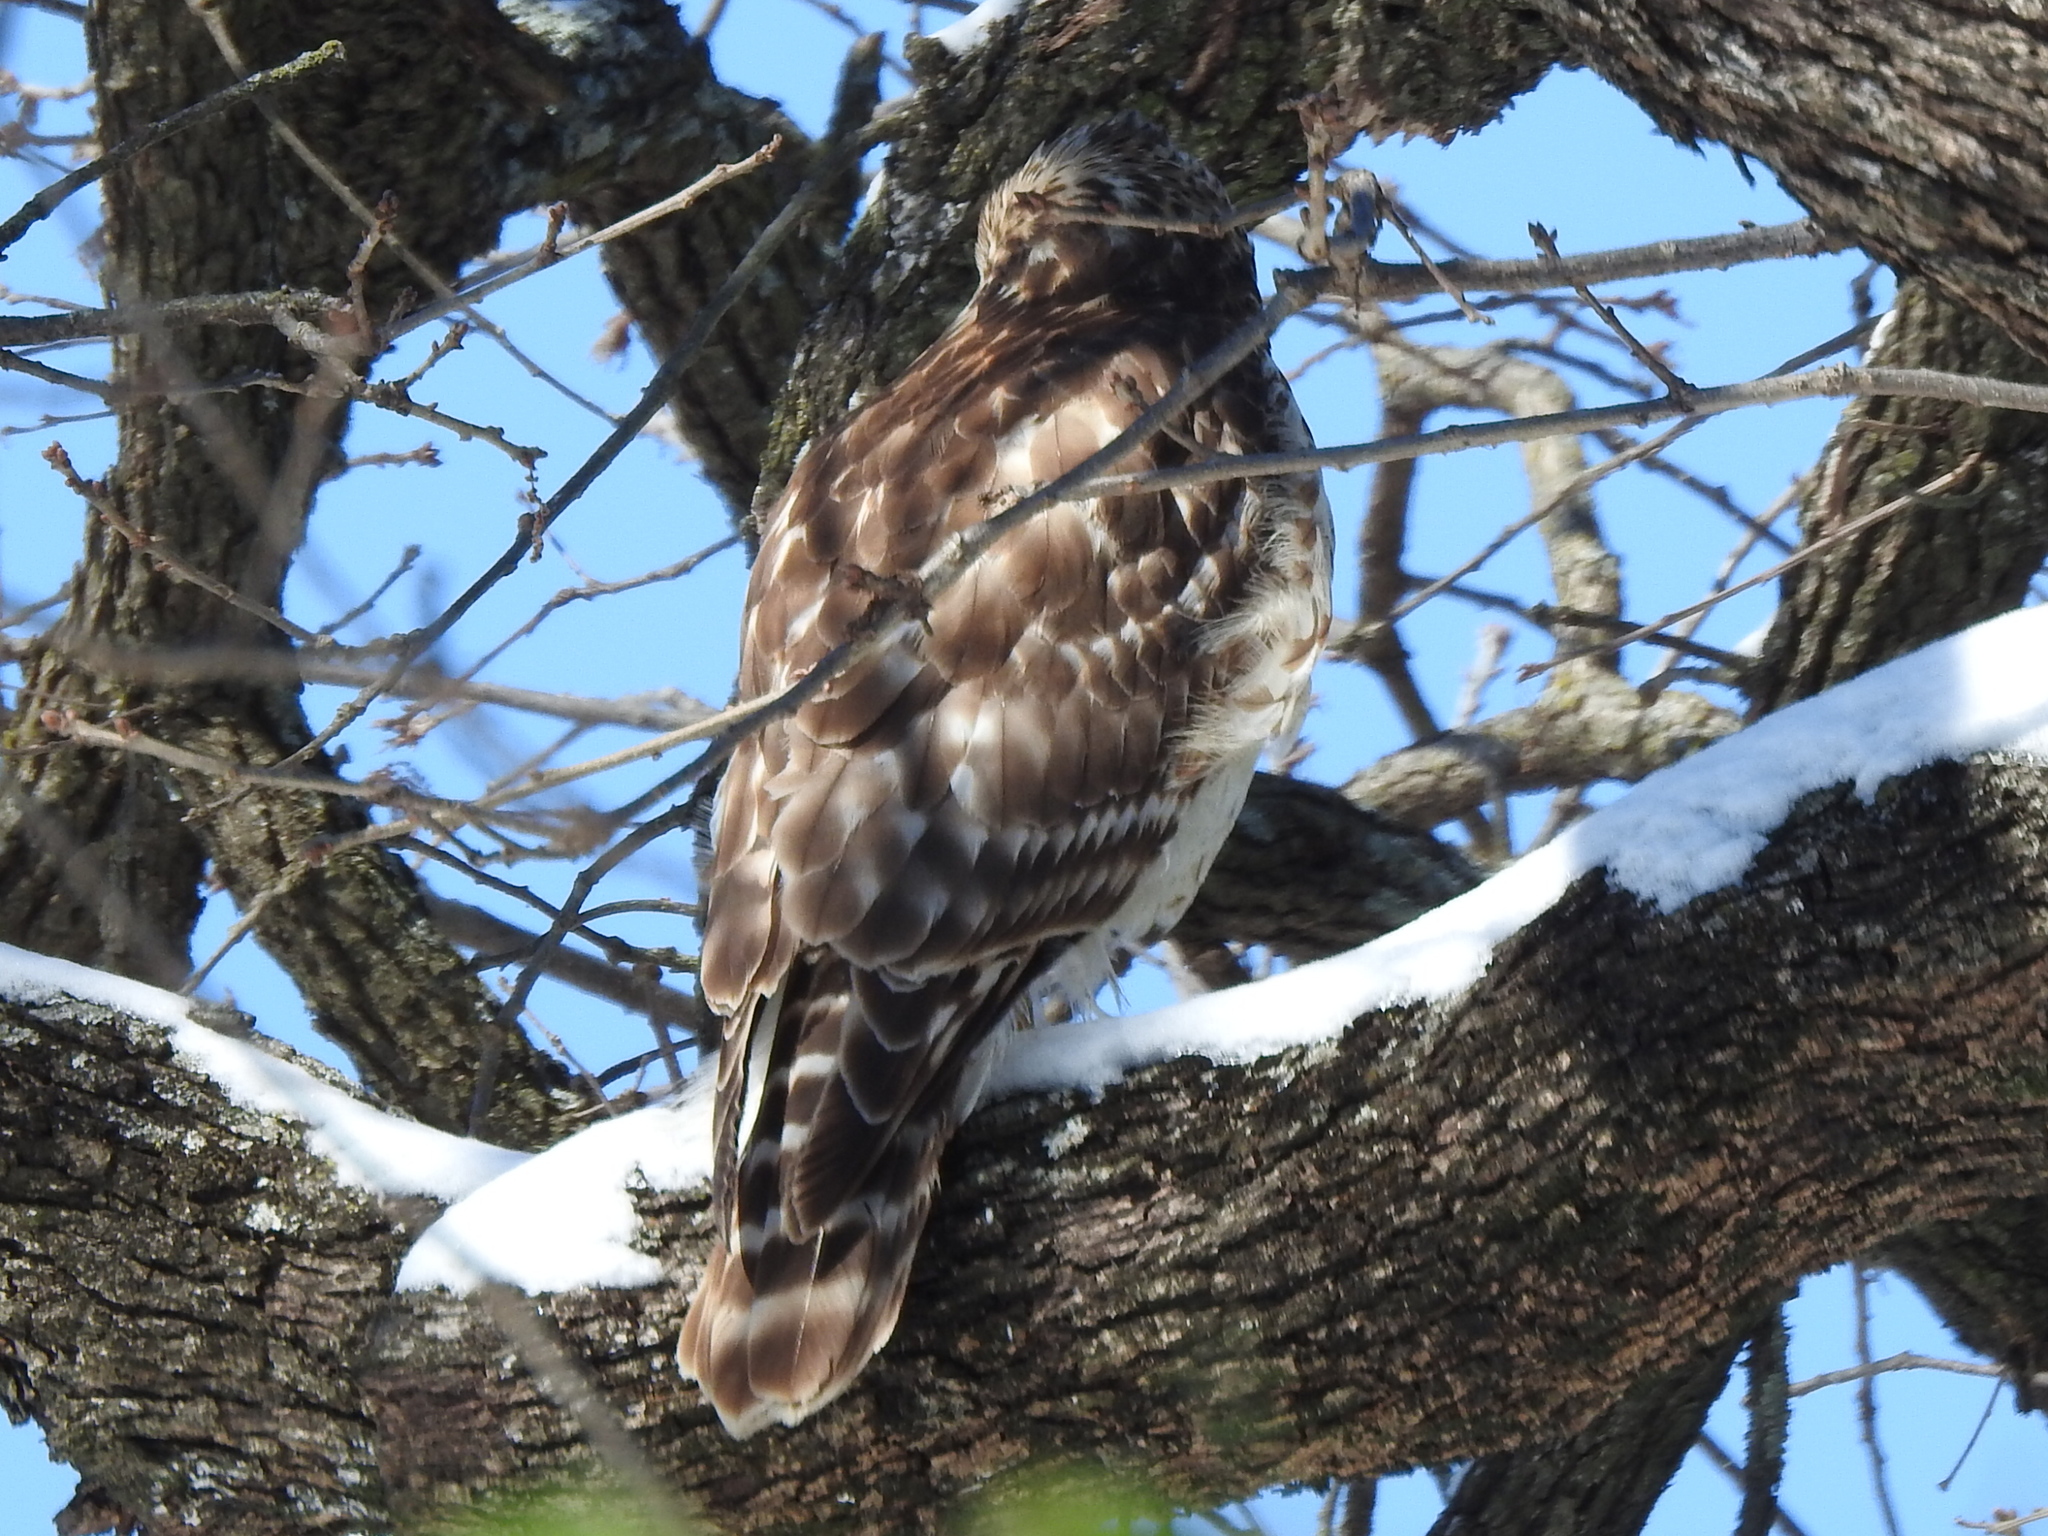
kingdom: Animalia
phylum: Chordata
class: Aves
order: Accipitriformes
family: Accipitridae
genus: Buteo
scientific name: Buteo lineatus
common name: Red-shouldered hawk
